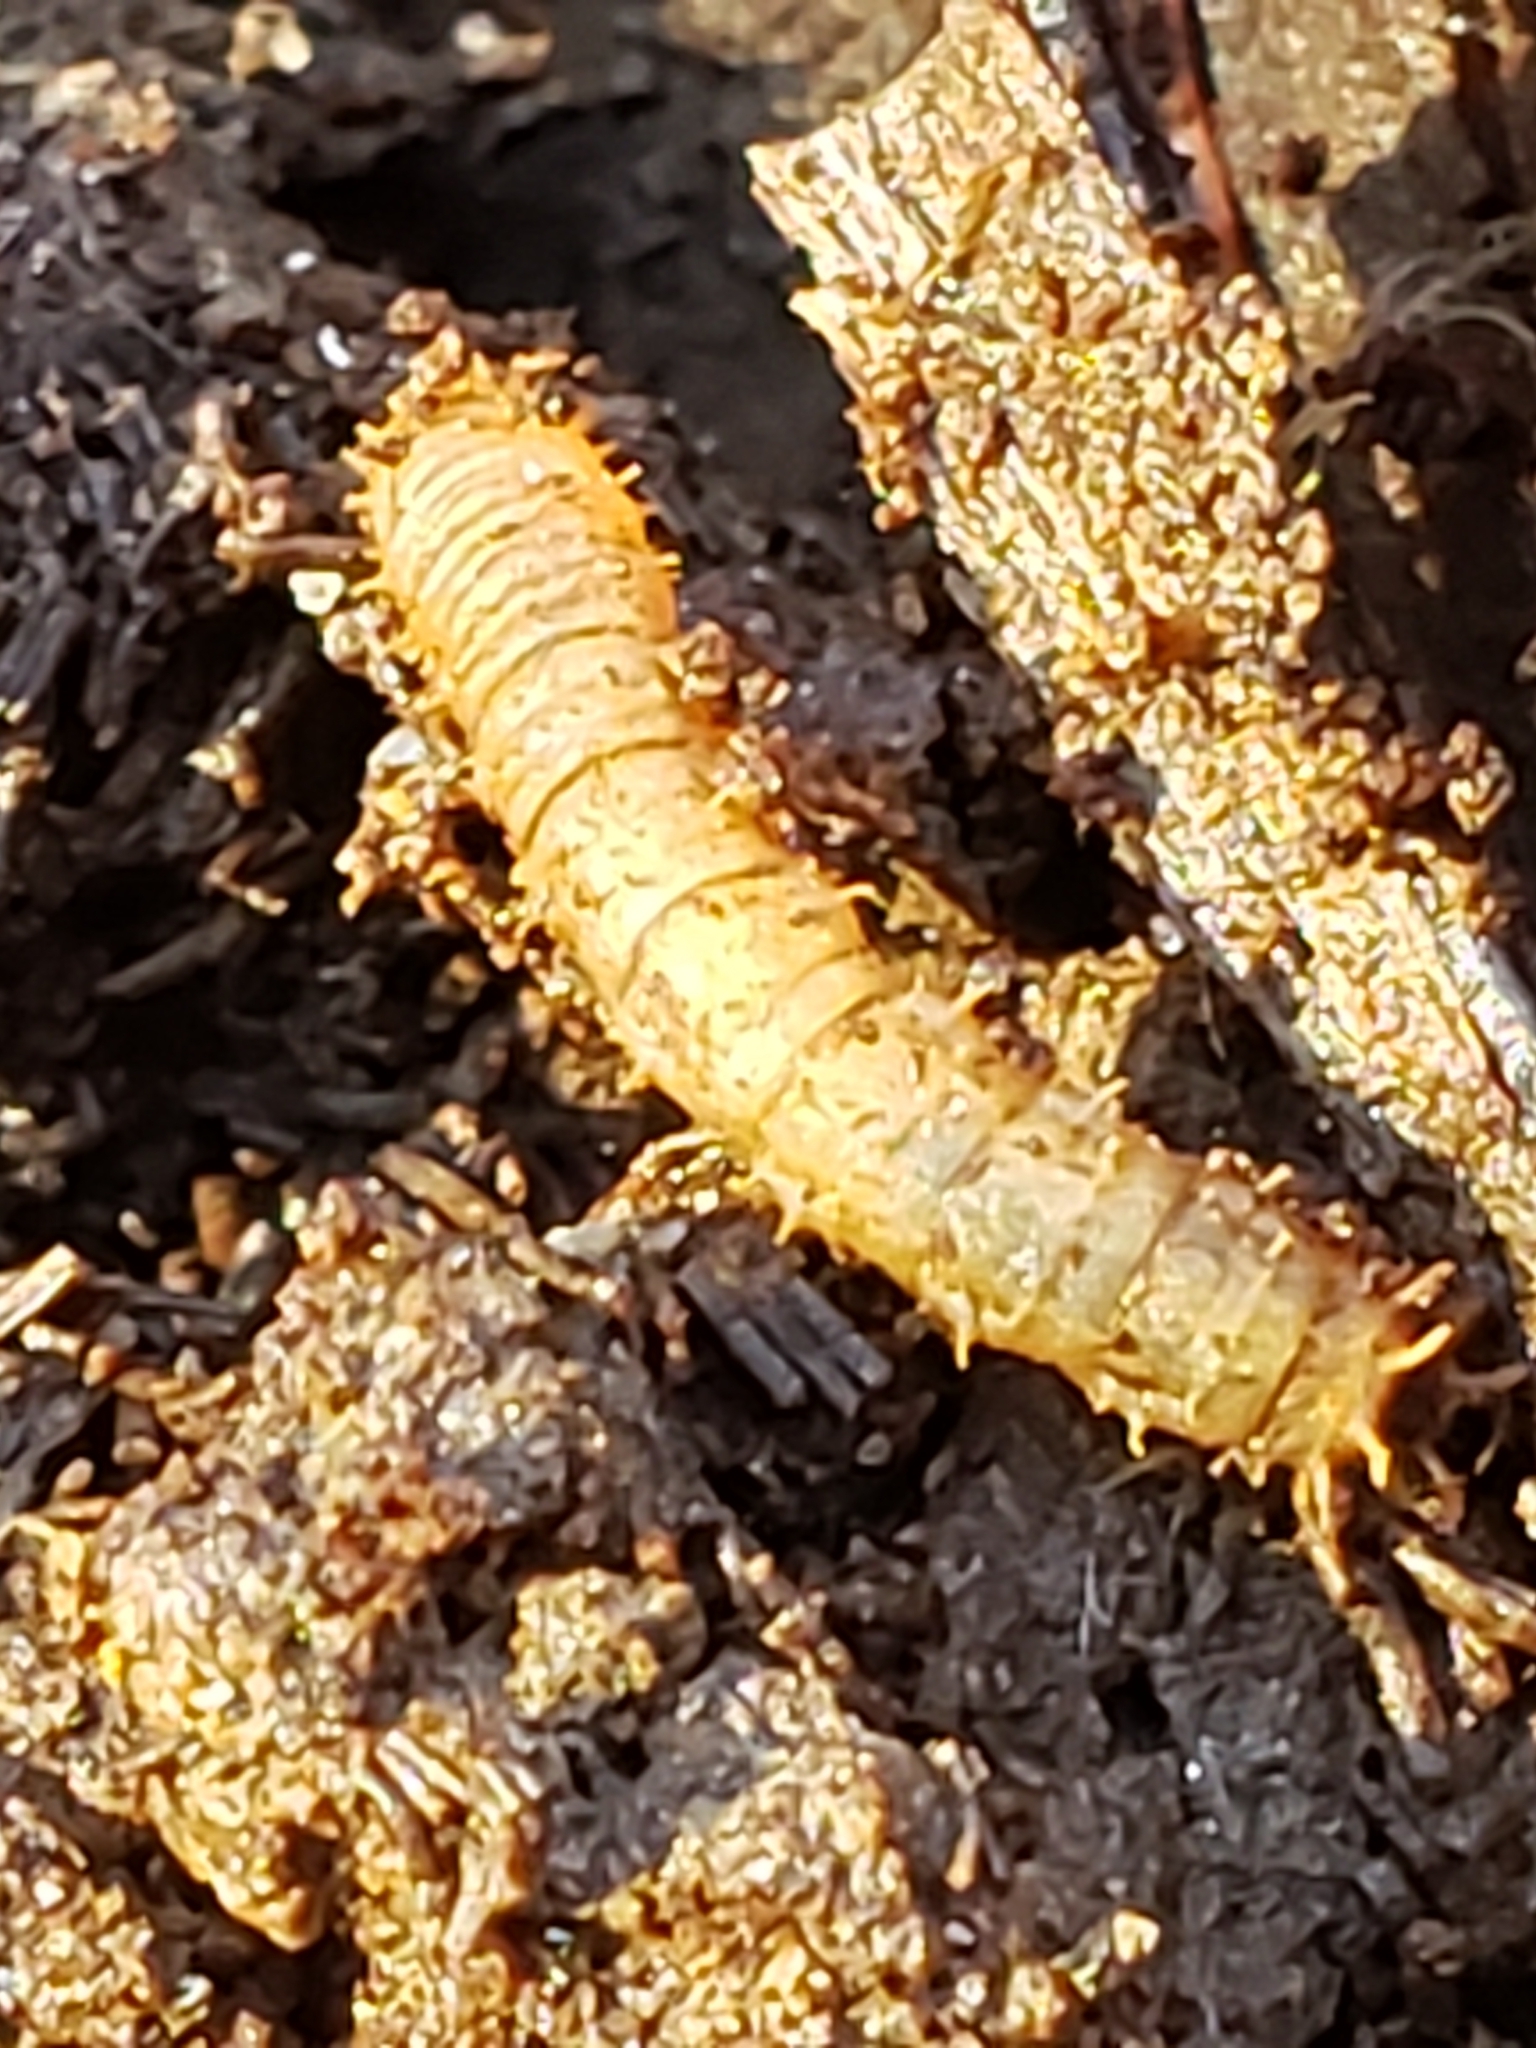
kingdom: Animalia
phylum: Arthropoda
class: Insecta
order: Diptera
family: Bibionidae
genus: Bibio
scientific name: Bibio
